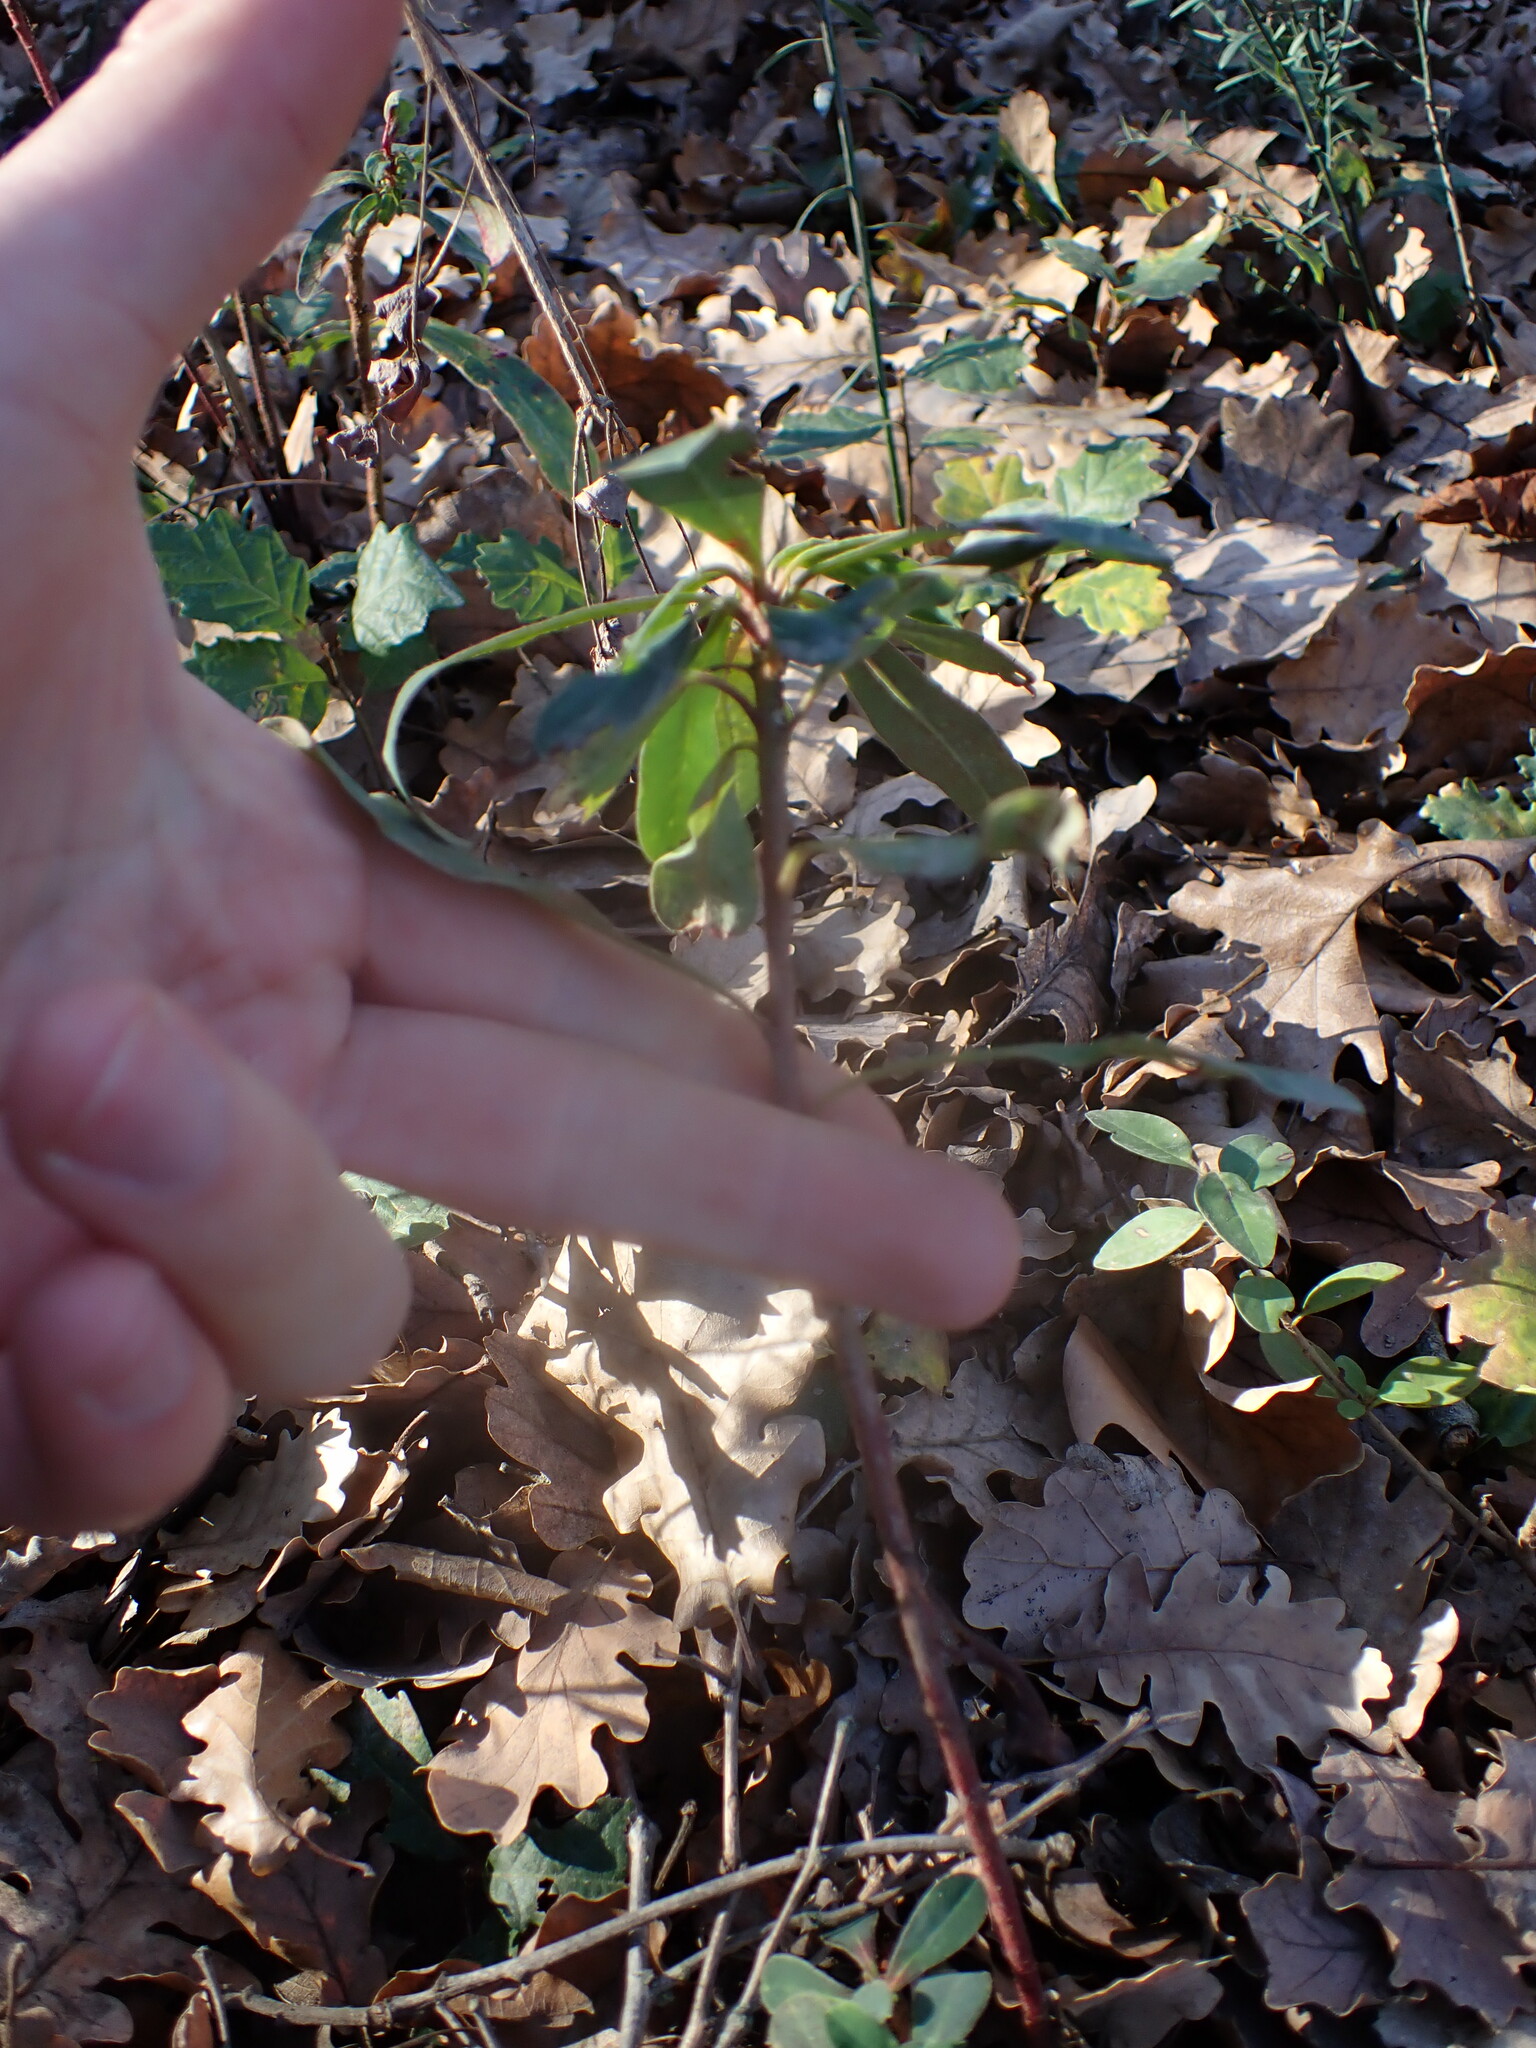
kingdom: Plantae
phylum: Tracheophyta
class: Magnoliopsida
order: Malpighiales
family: Euphorbiaceae
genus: Euphorbia
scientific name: Euphorbia amygdaloides
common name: Wood spurge
